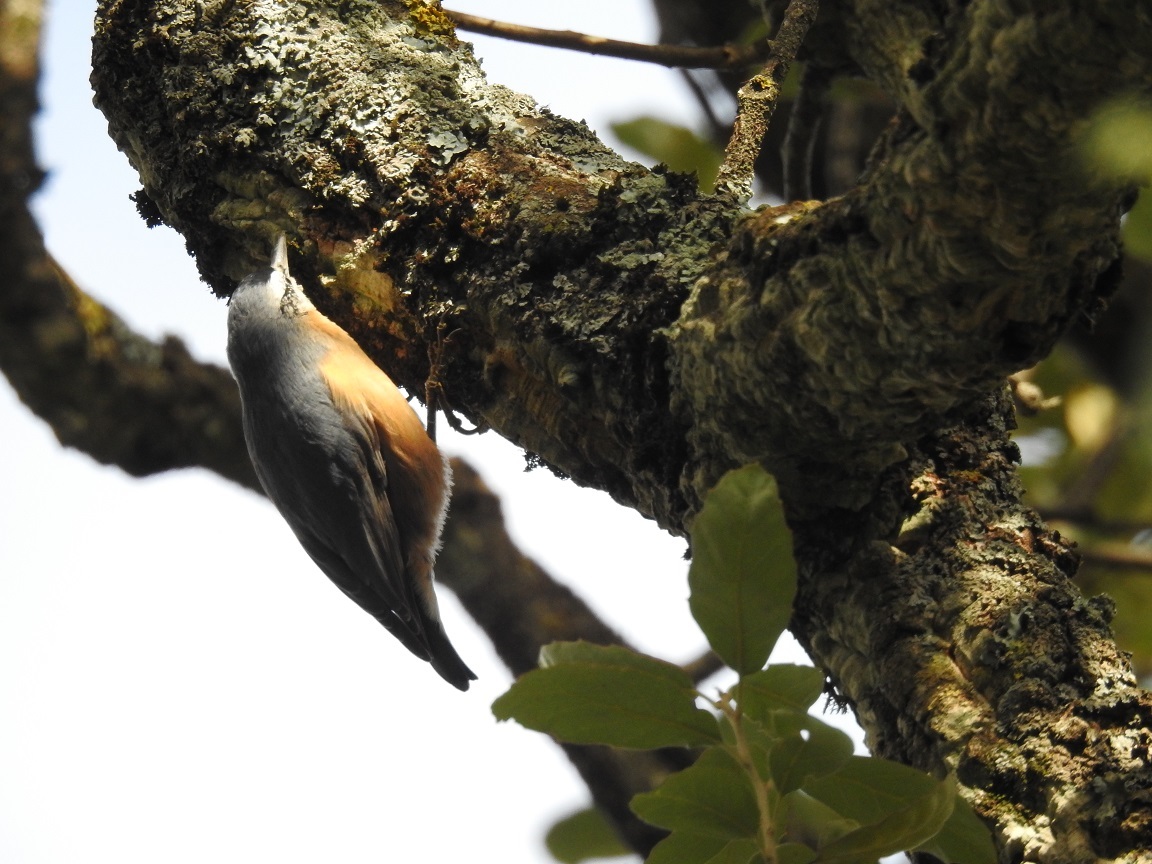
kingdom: Animalia
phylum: Chordata
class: Aves
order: Passeriformes
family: Sittidae
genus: Sitta
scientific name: Sitta ledanti
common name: Algerian nuthatch
